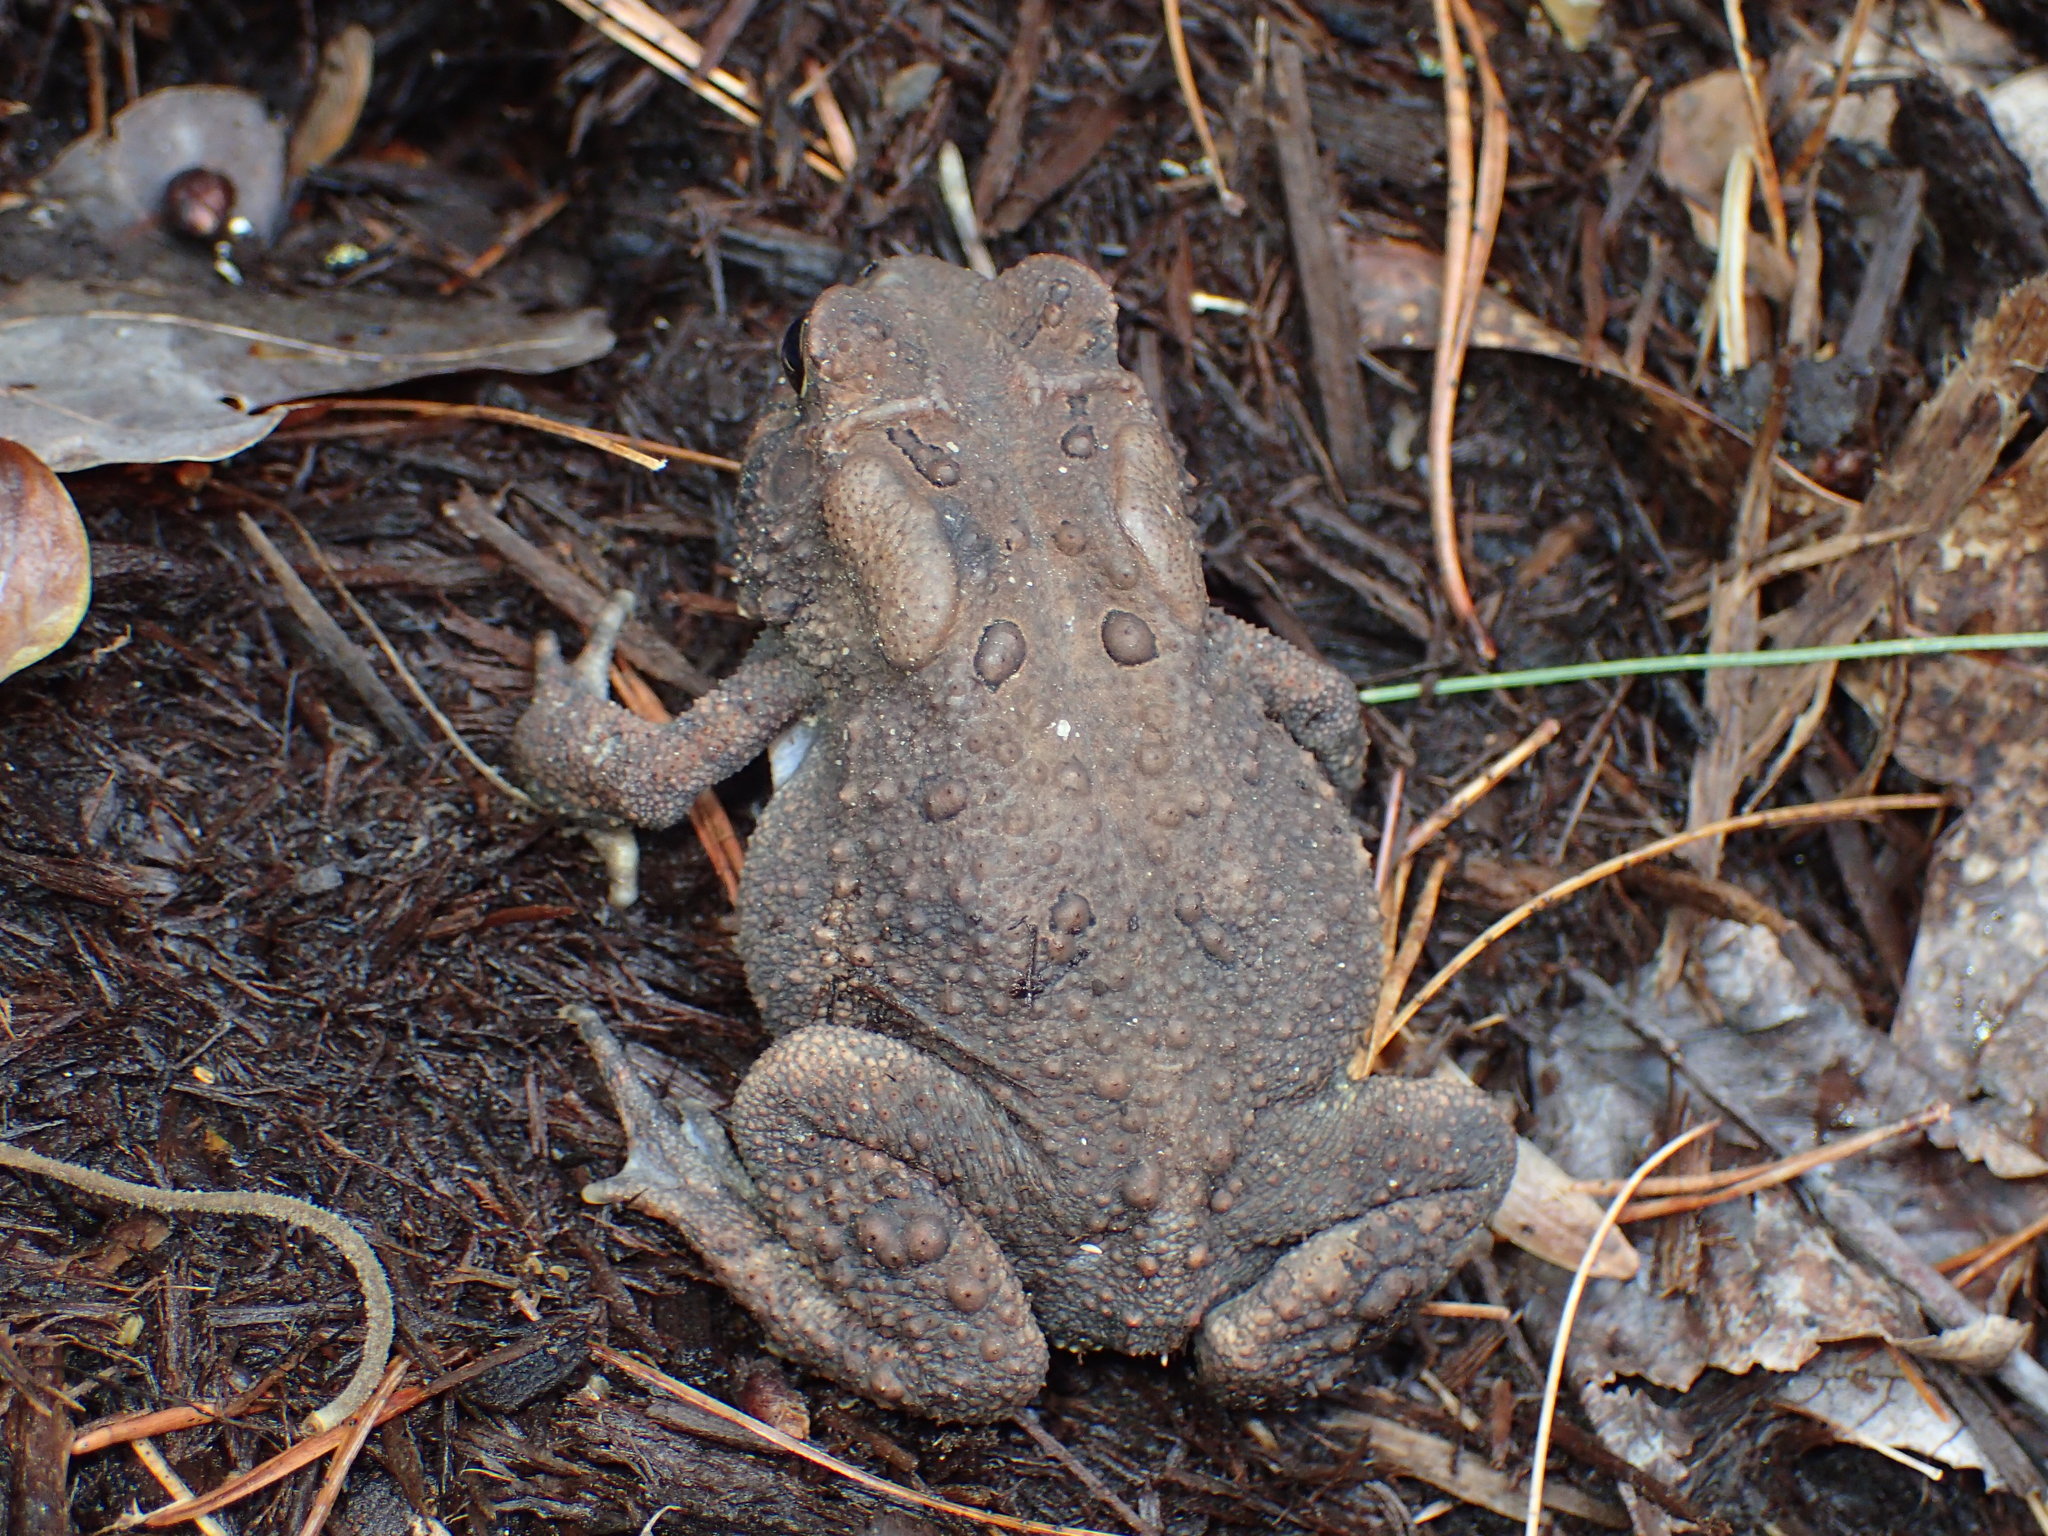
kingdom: Animalia
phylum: Chordata
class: Amphibia
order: Anura
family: Bufonidae
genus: Anaxyrus
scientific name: Anaxyrus americanus
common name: American toad
